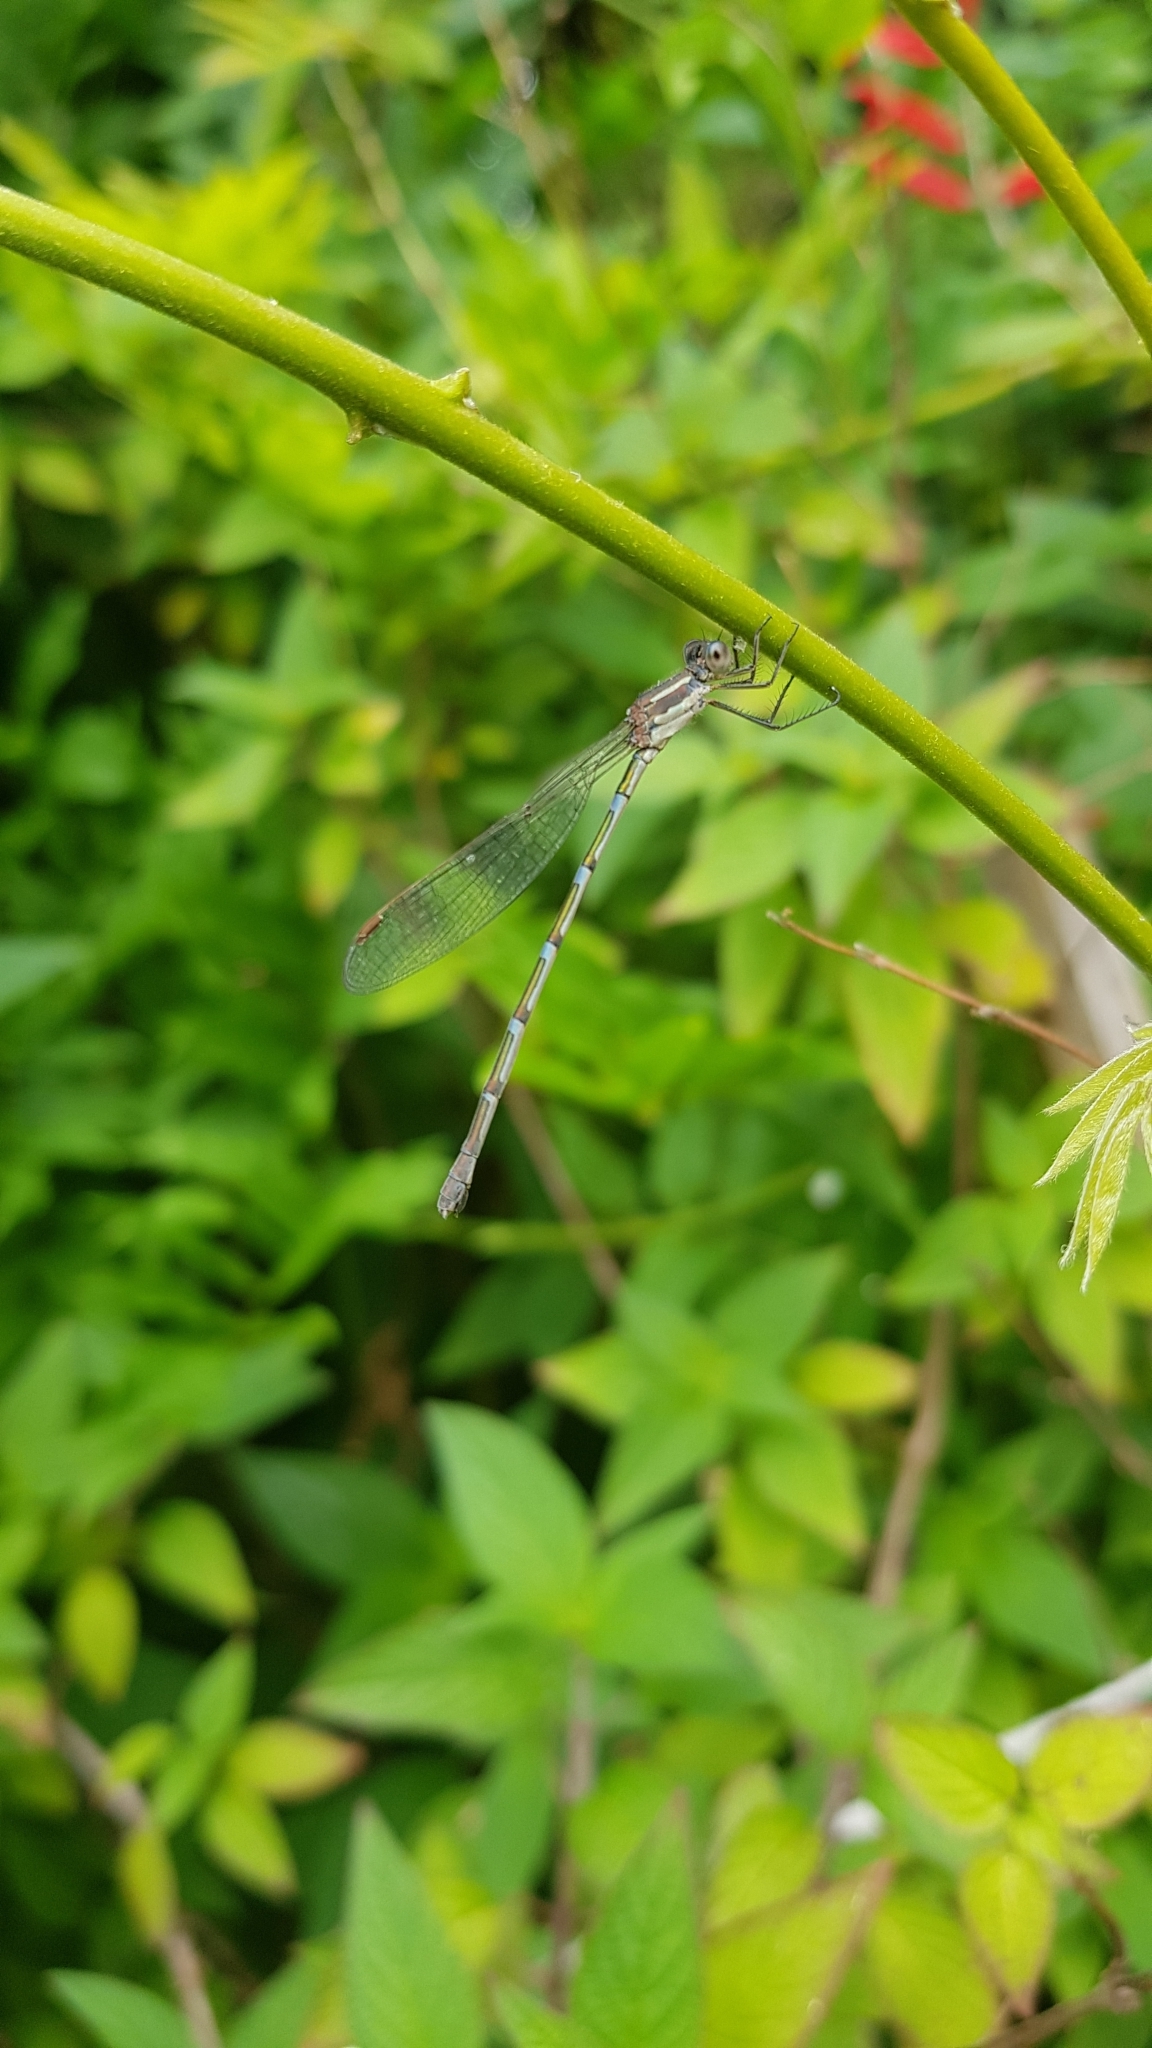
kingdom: Animalia
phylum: Arthropoda
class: Insecta
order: Odonata
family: Lestidae
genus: Austrolestes
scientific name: Austrolestes leda
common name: Wandering ringtail
